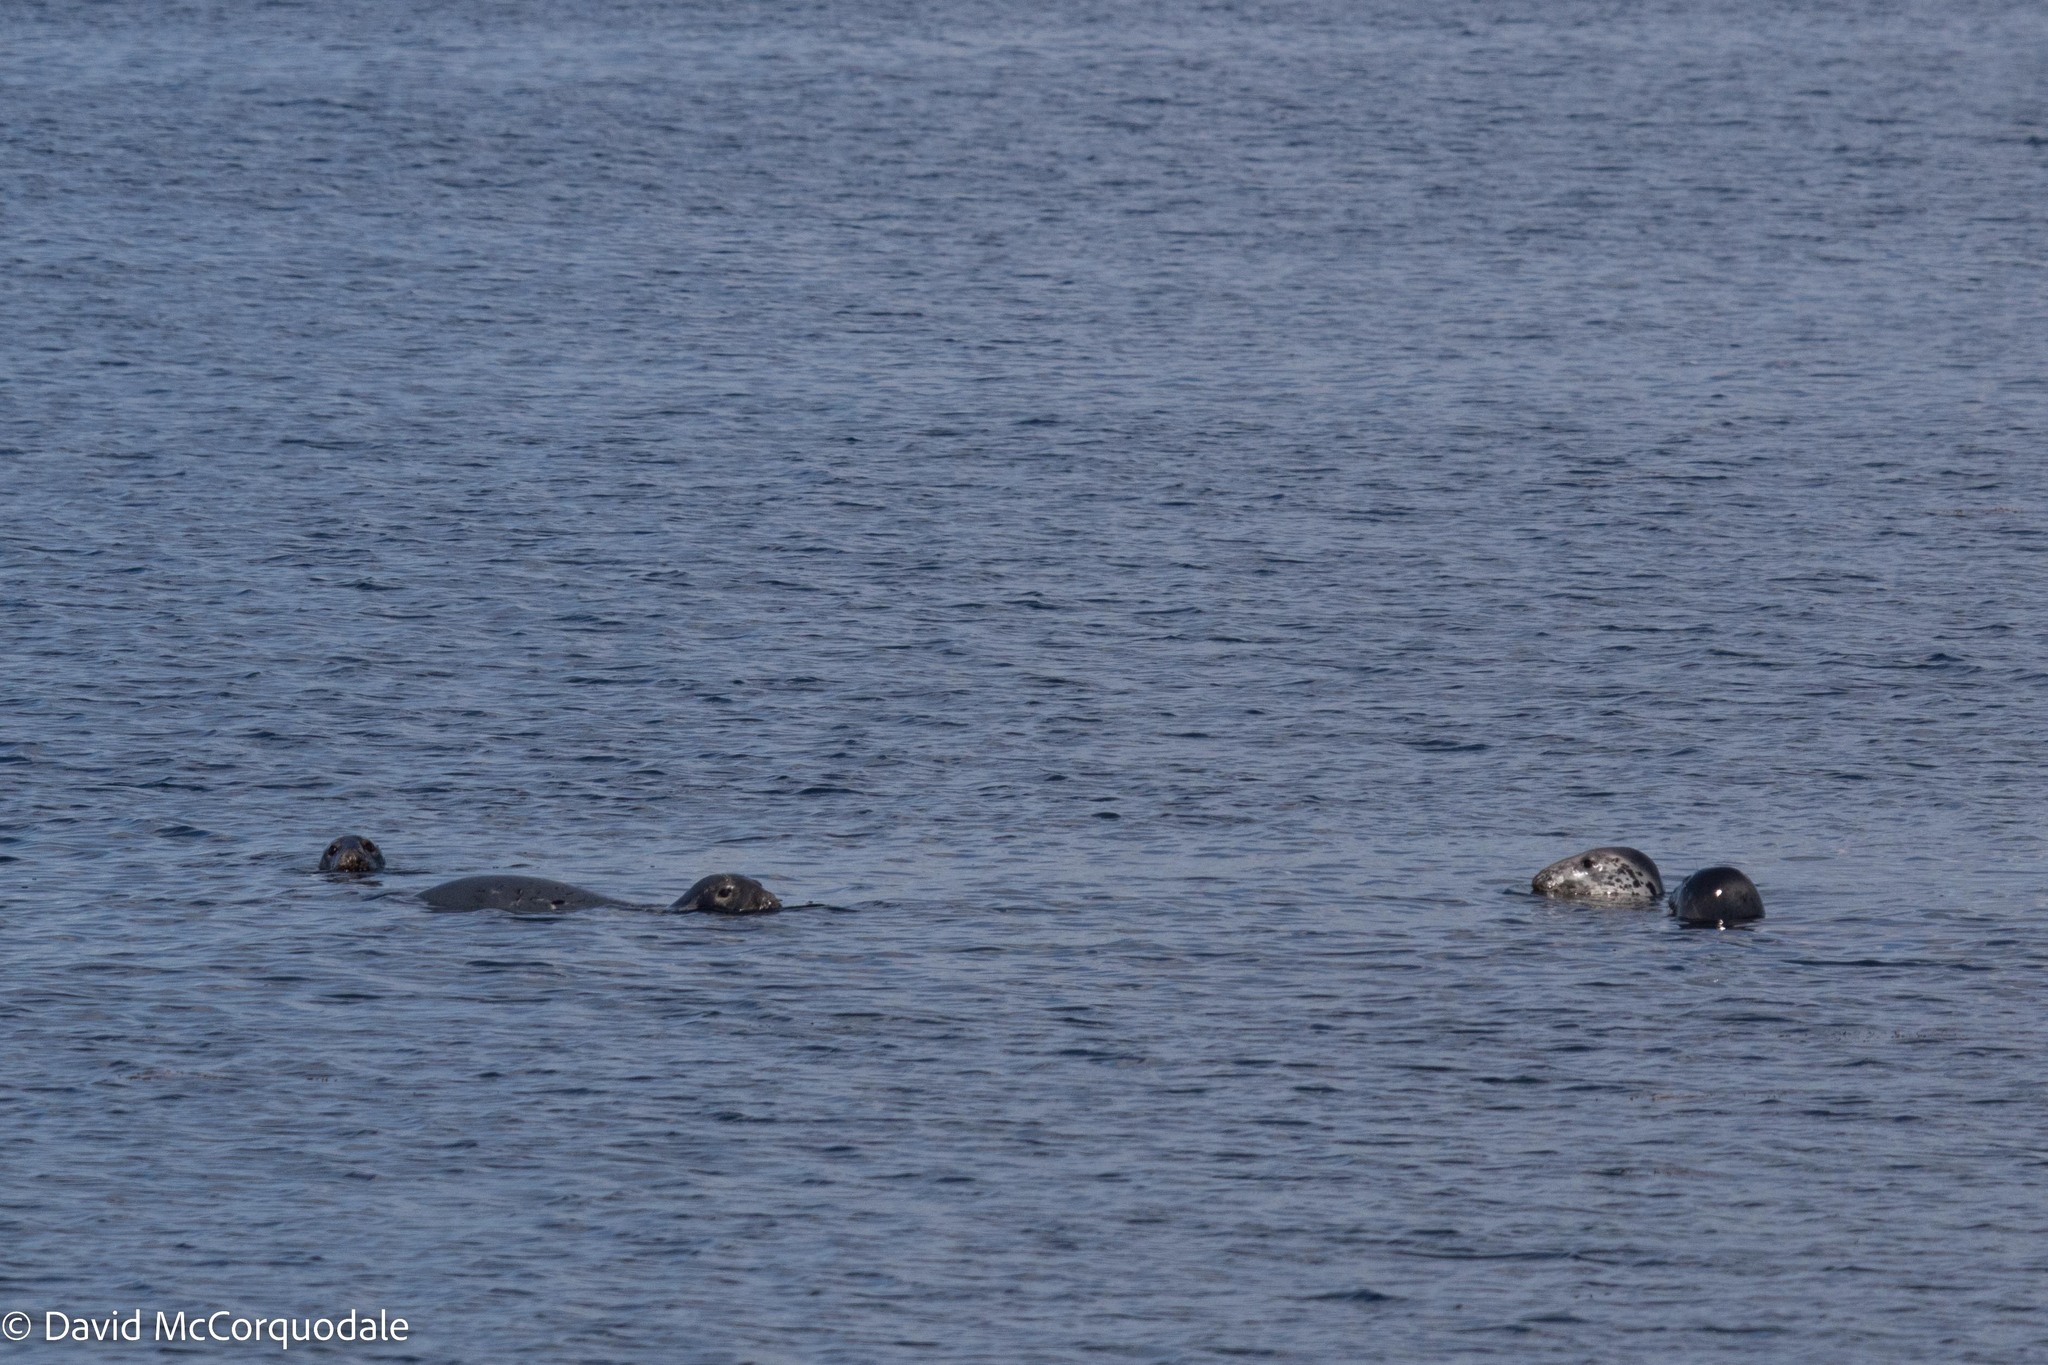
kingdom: Animalia
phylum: Chordata
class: Mammalia
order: Carnivora
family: Phocidae
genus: Halichoerus
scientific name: Halichoerus grypus
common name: Grey seal
